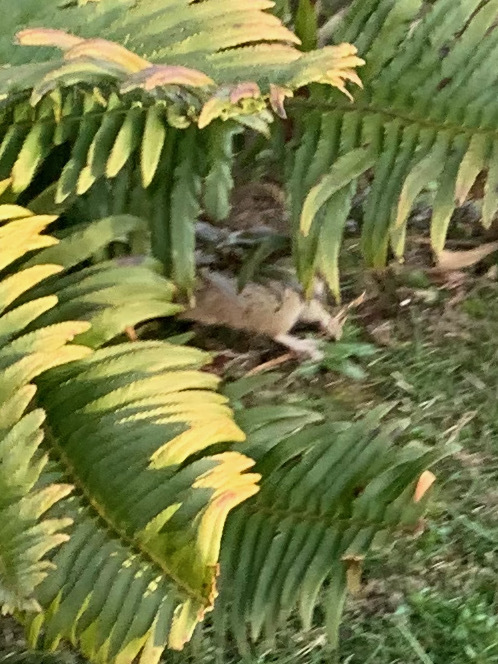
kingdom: Animalia
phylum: Chordata
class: Mammalia
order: Rodentia
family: Muridae
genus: Rattus
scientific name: Rattus norvegicus
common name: Brown rat
